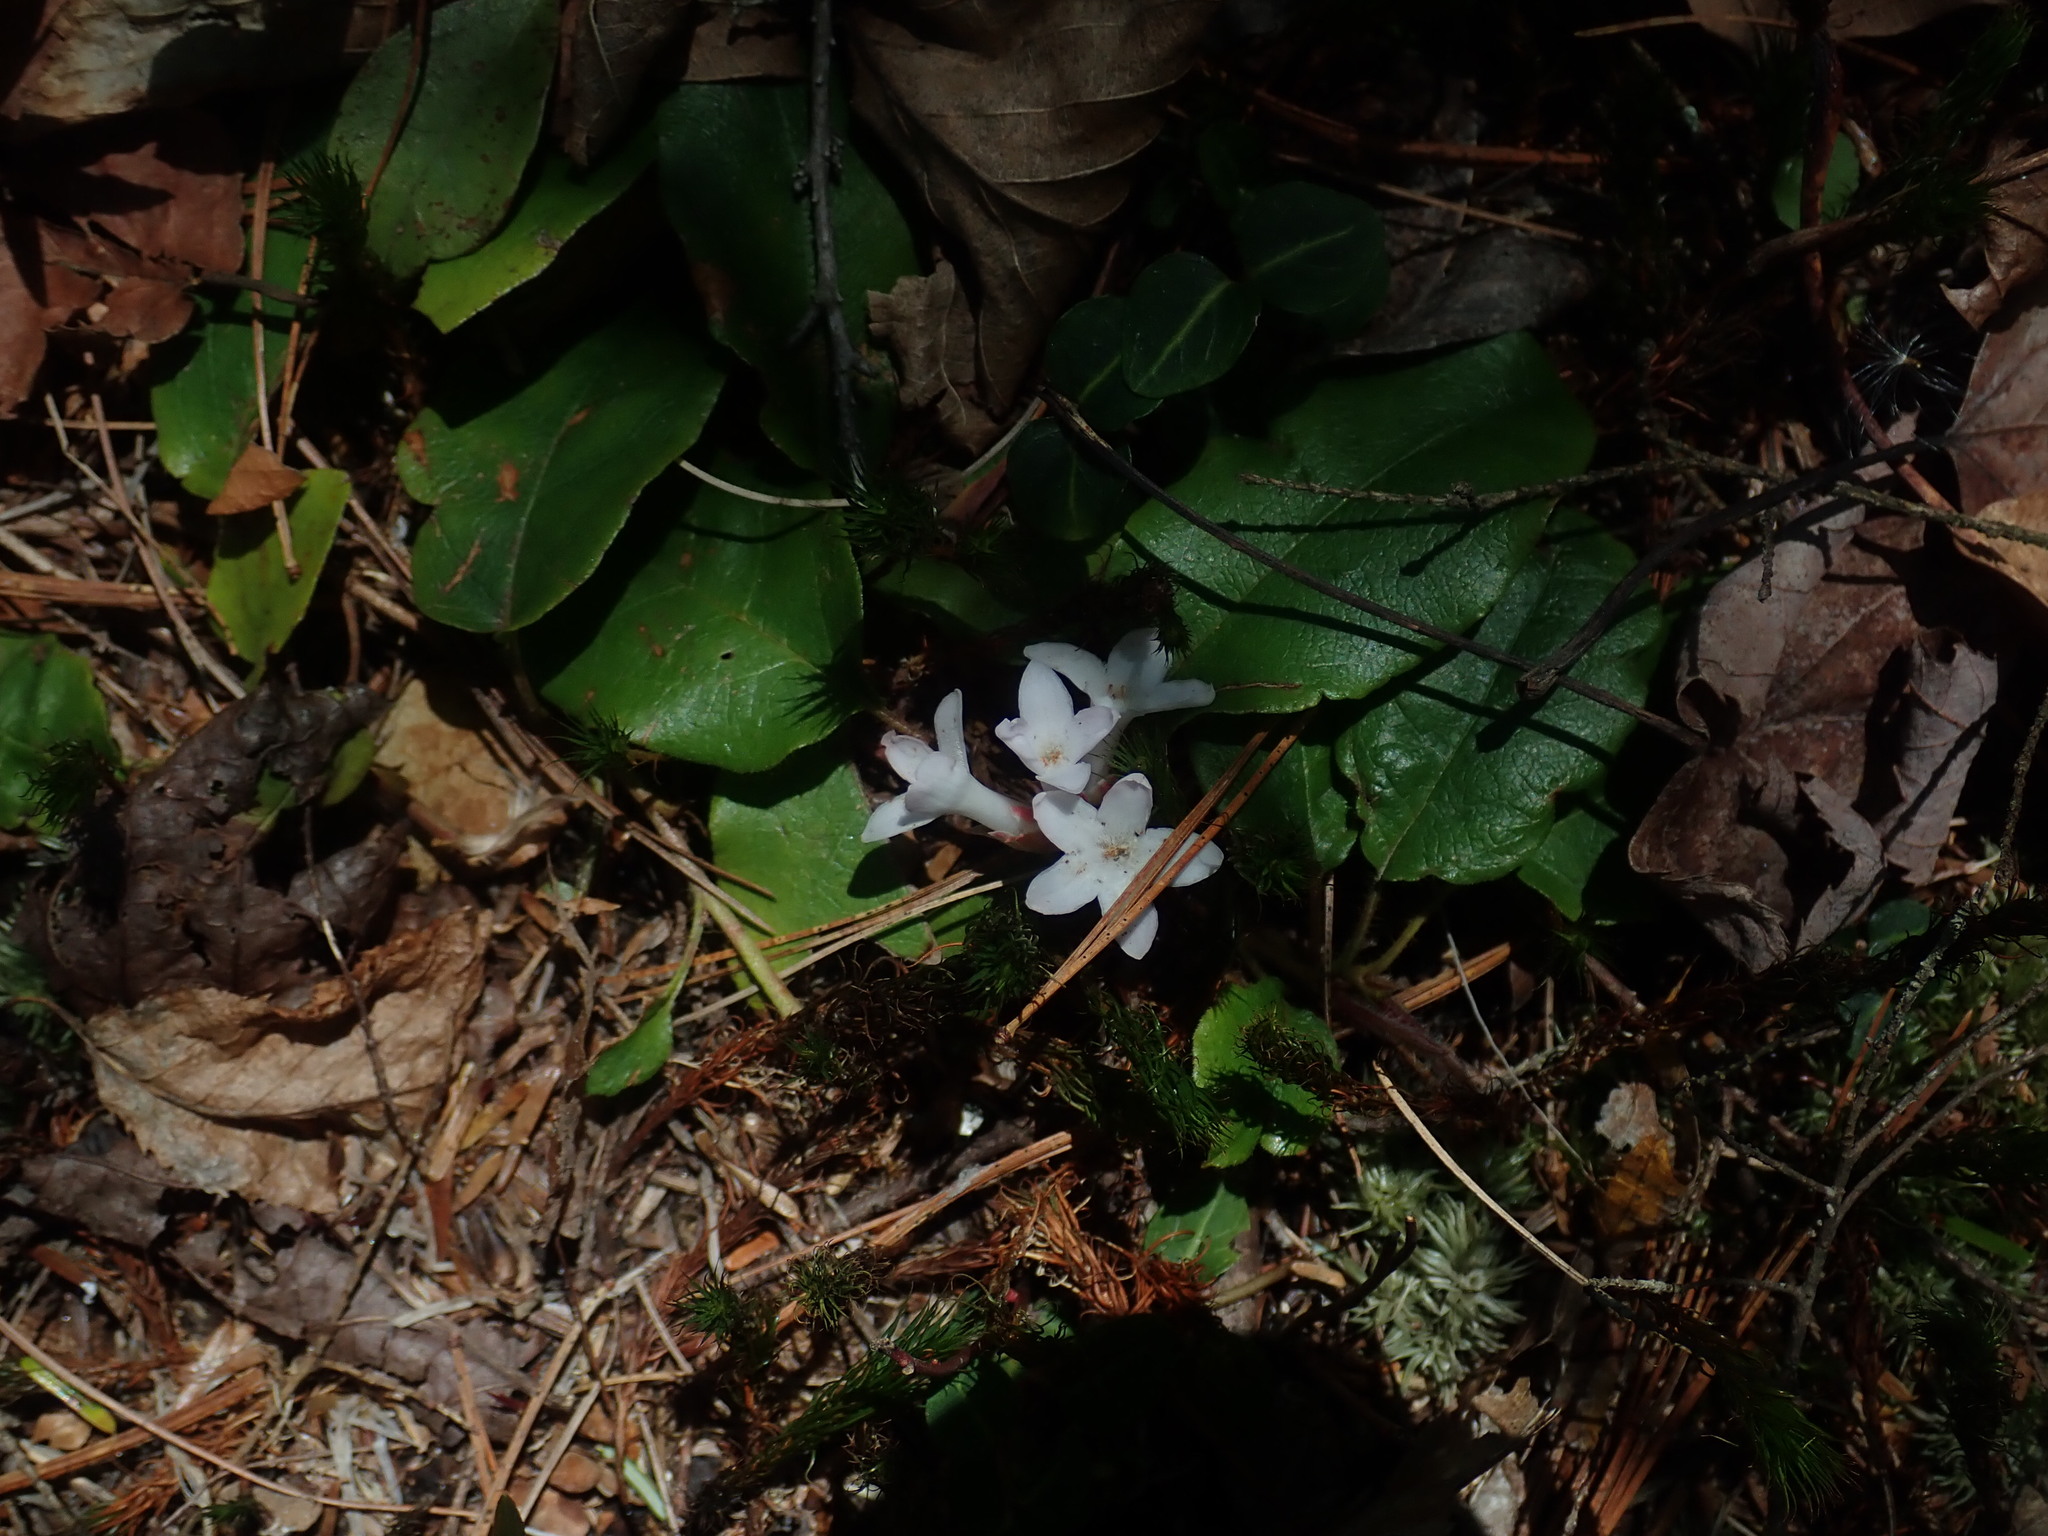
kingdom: Plantae
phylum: Tracheophyta
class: Magnoliopsida
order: Ericales
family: Ericaceae
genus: Epigaea
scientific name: Epigaea repens
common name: Gravelroot
